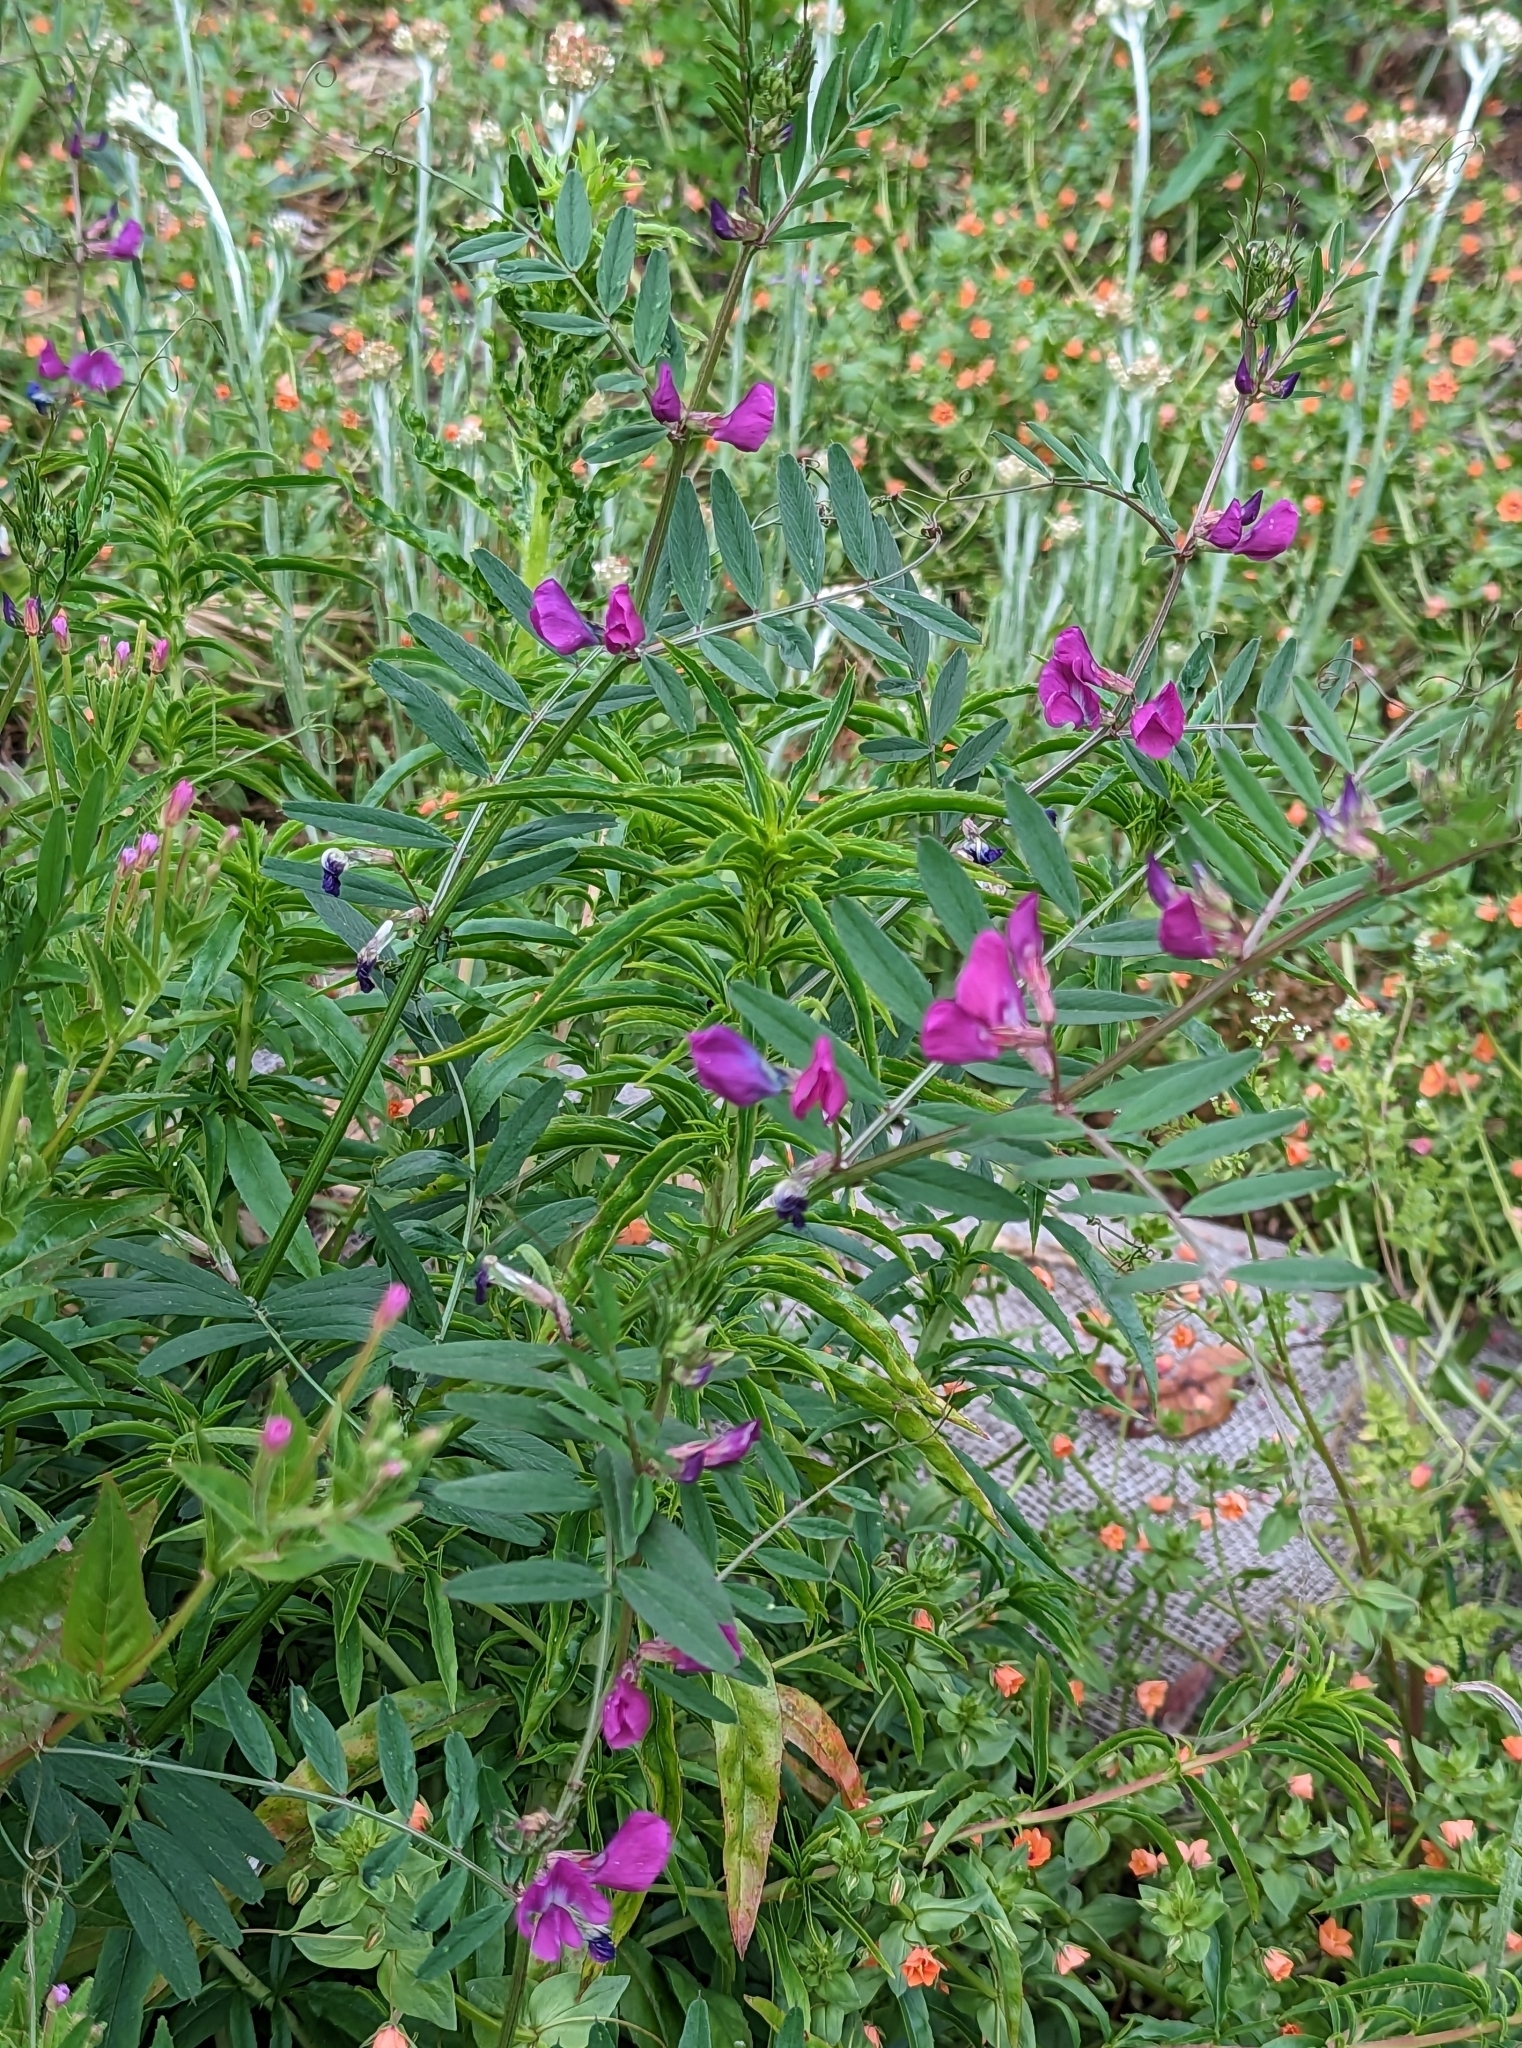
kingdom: Plantae
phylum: Tracheophyta
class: Magnoliopsida
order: Fabales
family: Fabaceae
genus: Vicia
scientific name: Vicia sativa
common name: Garden vetch
